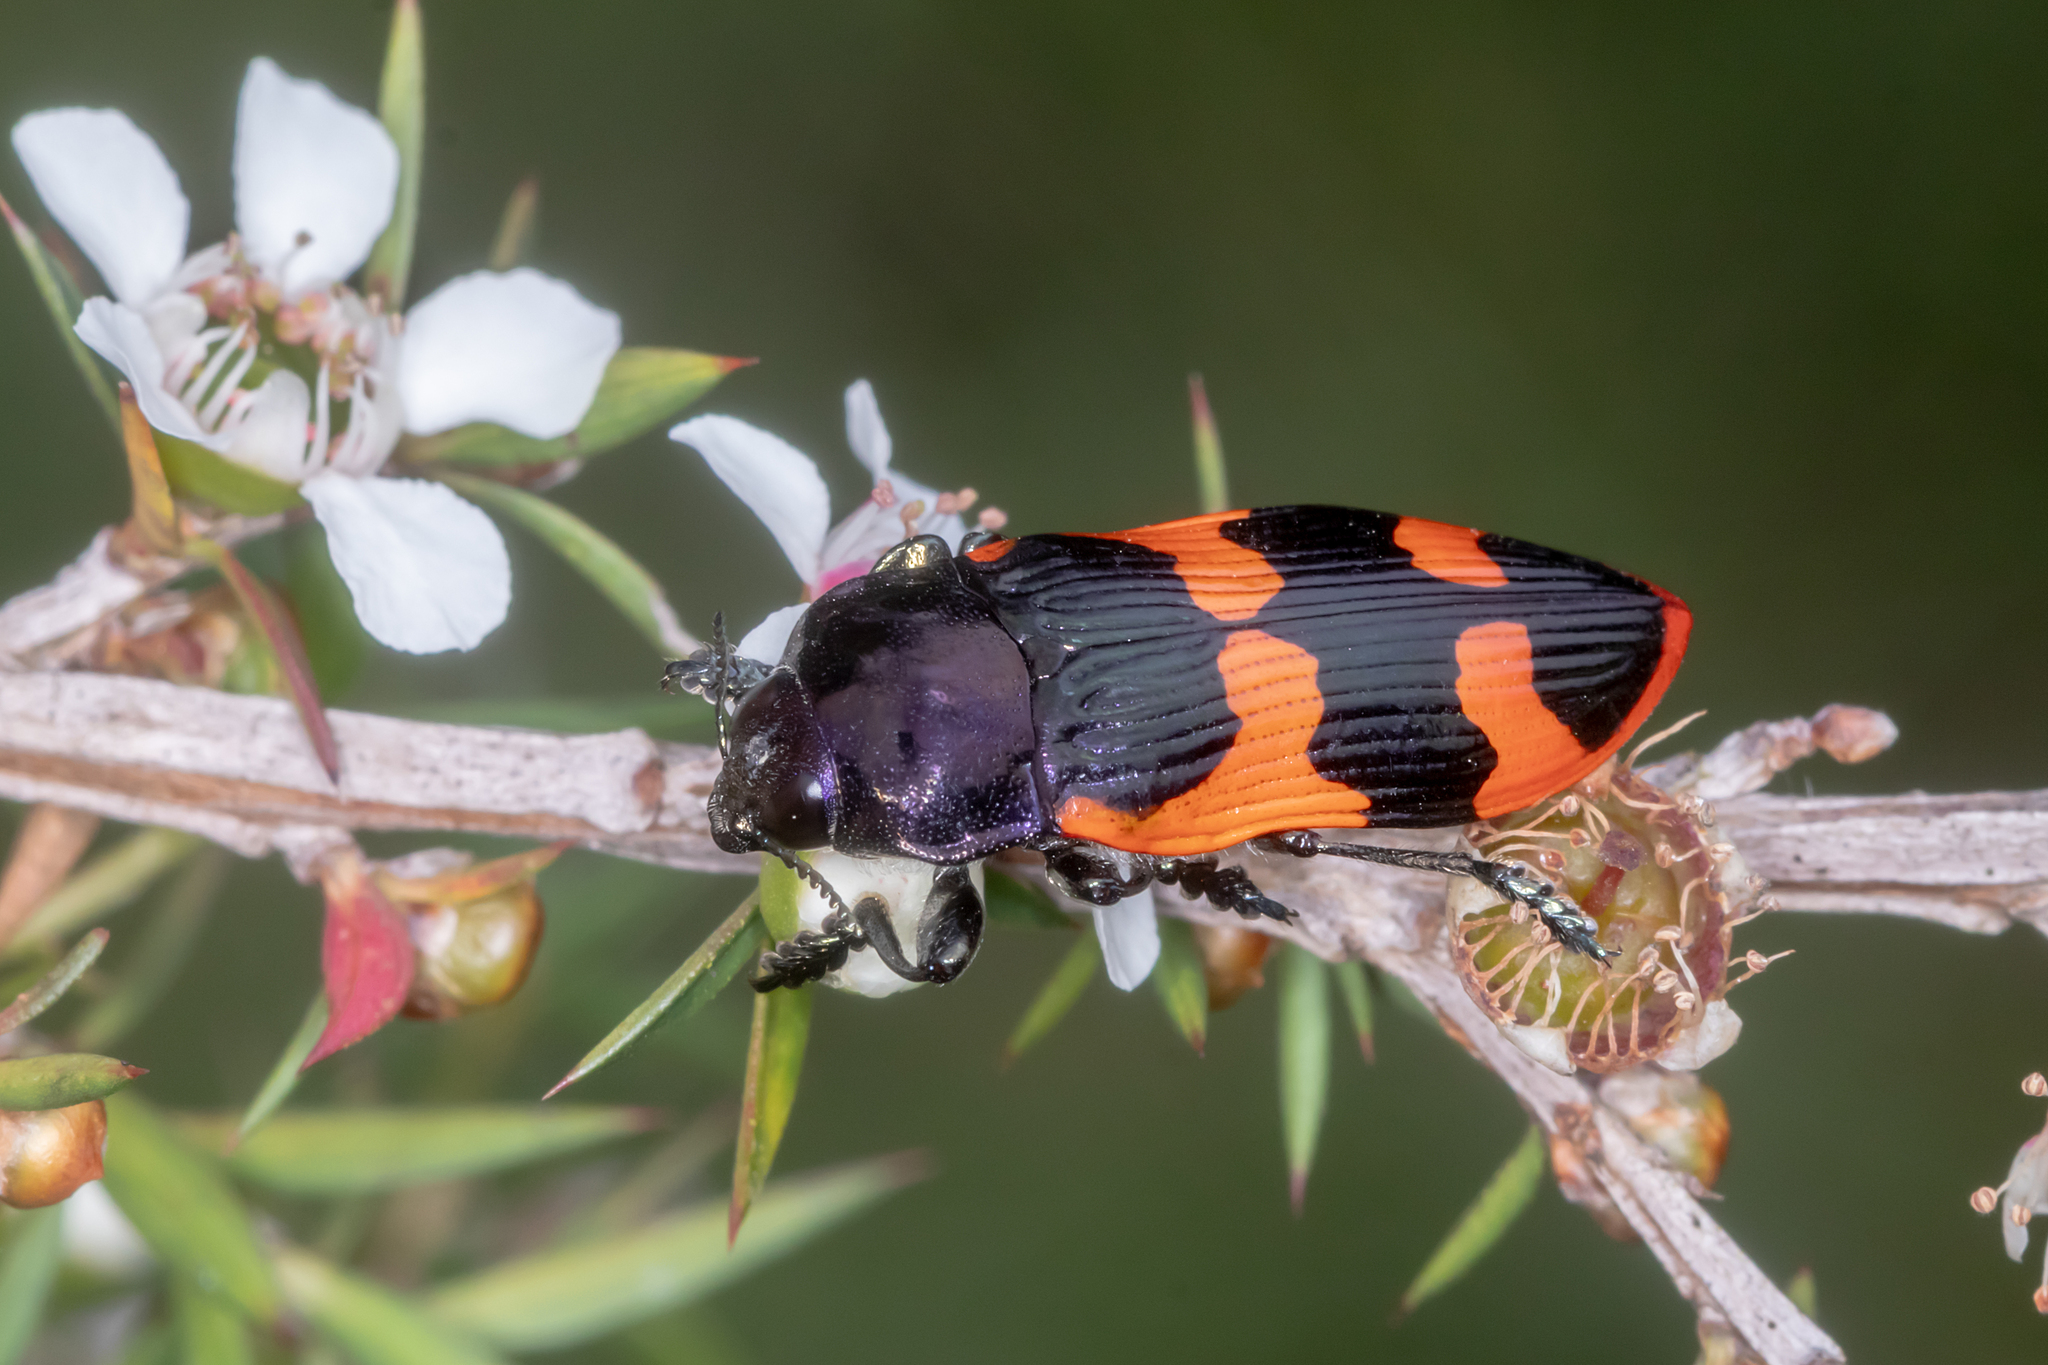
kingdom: Animalia
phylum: Arthropoda
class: Insecta
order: Coleoptera
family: Buprestidae
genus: Castiarina
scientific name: Castiarina bremei
